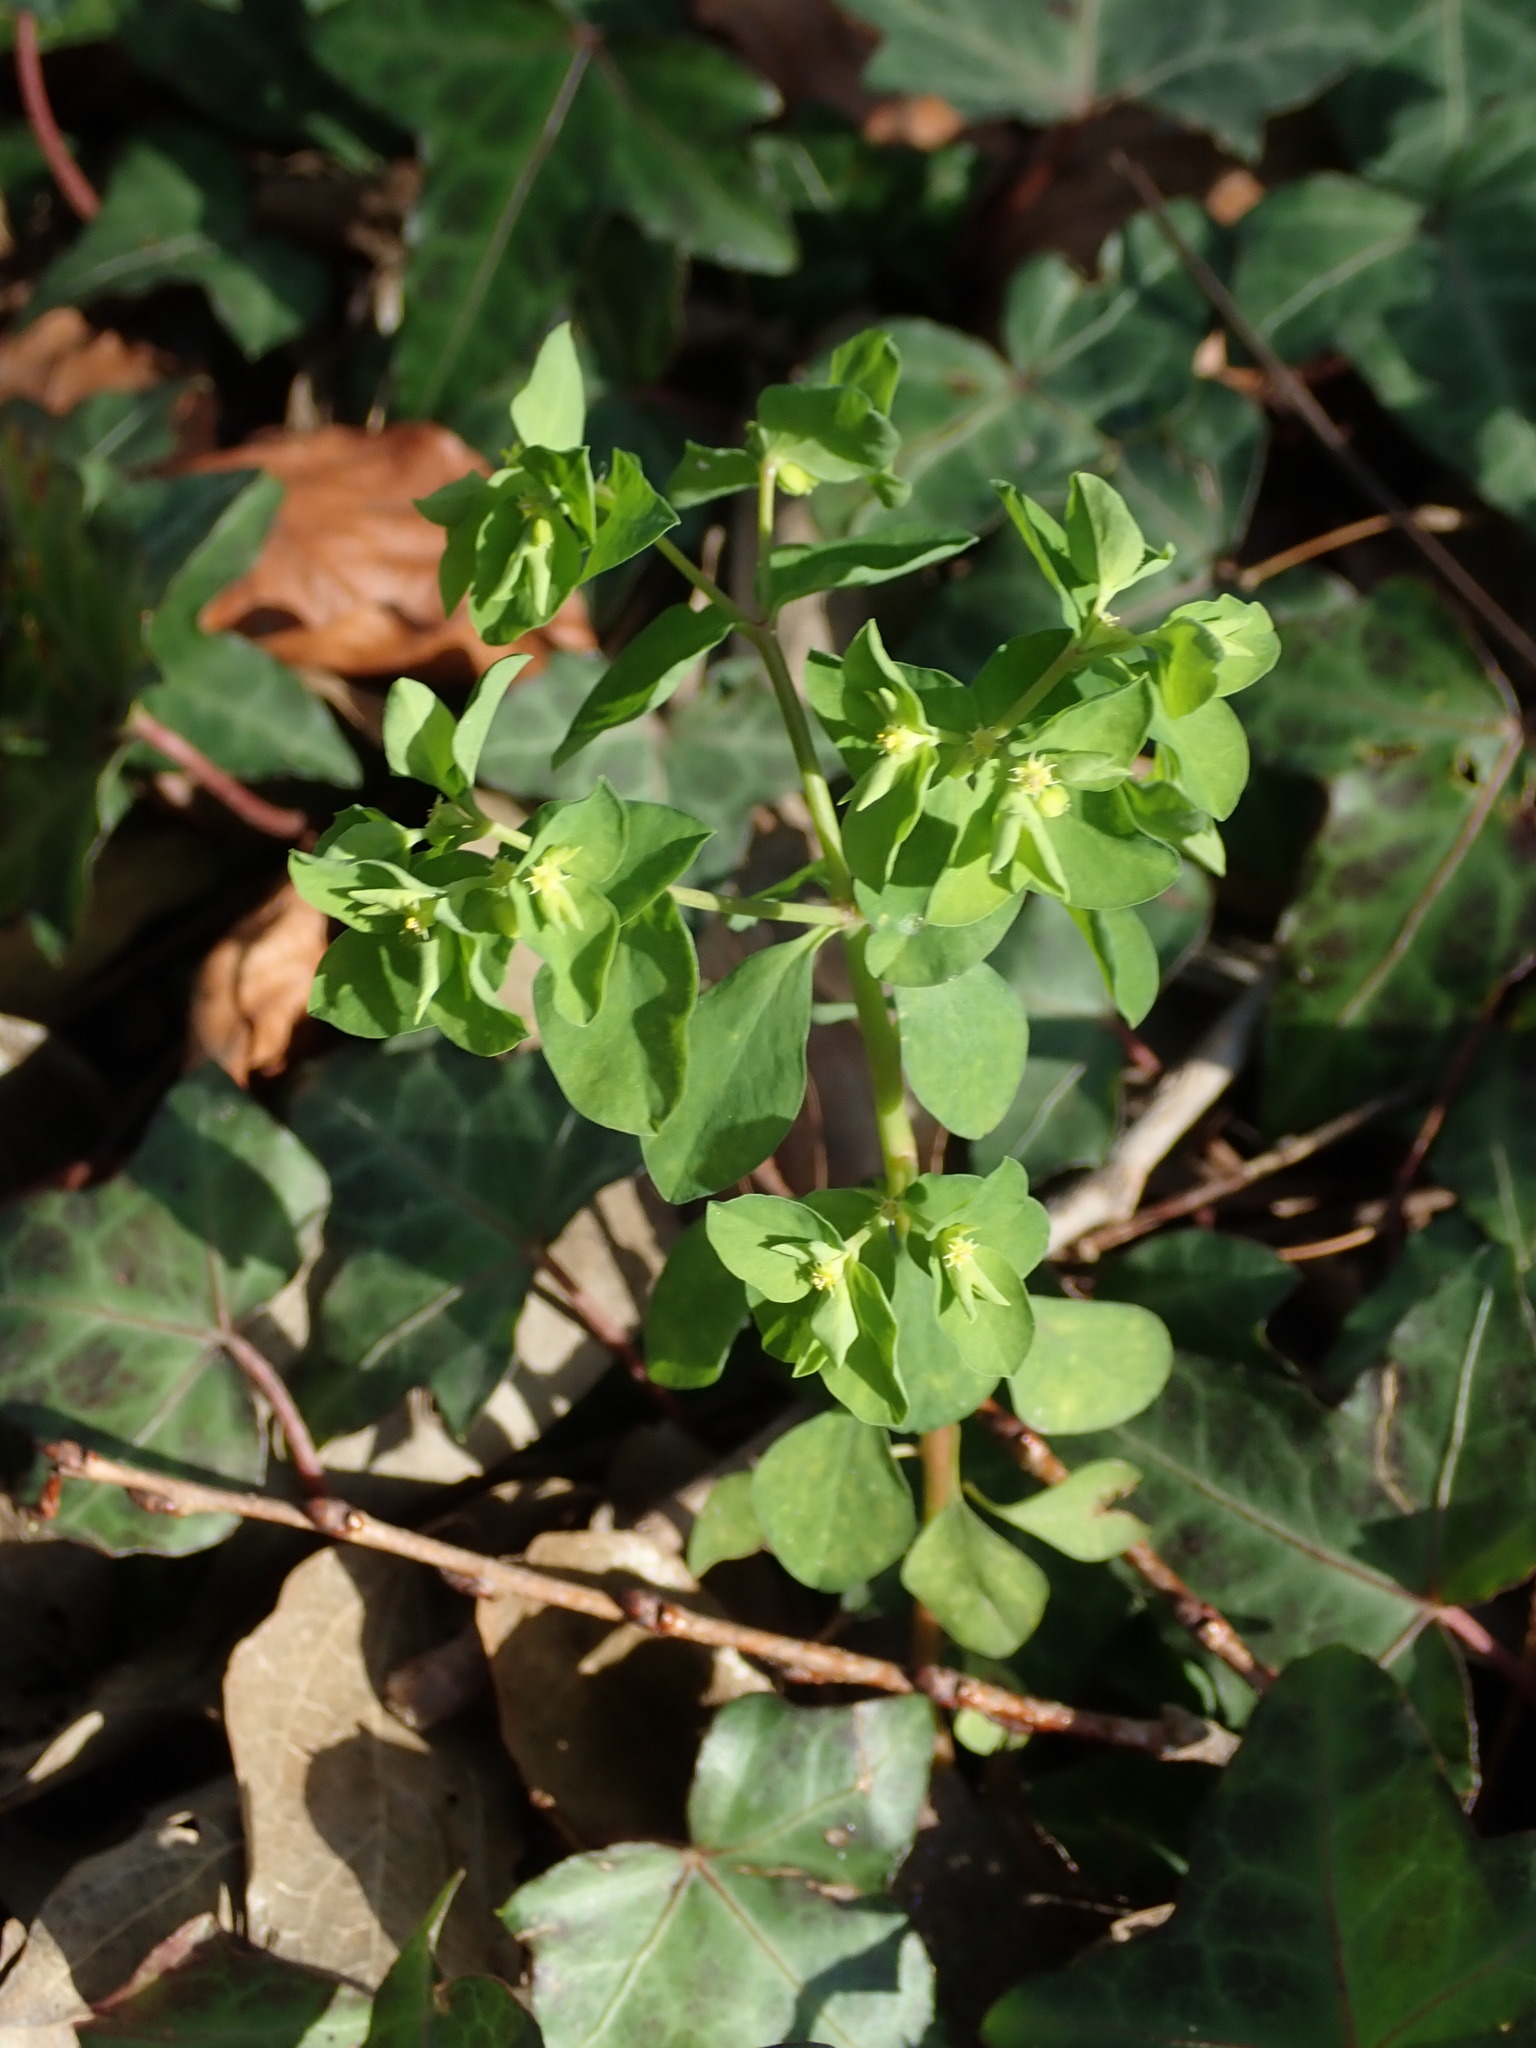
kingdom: Plantae
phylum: Tracheophyta
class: Magnoliopsida
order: Malpighiales
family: Euphorbiaceae
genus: Euphorbia
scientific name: Euphorbia peplus
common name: Petty spurge
